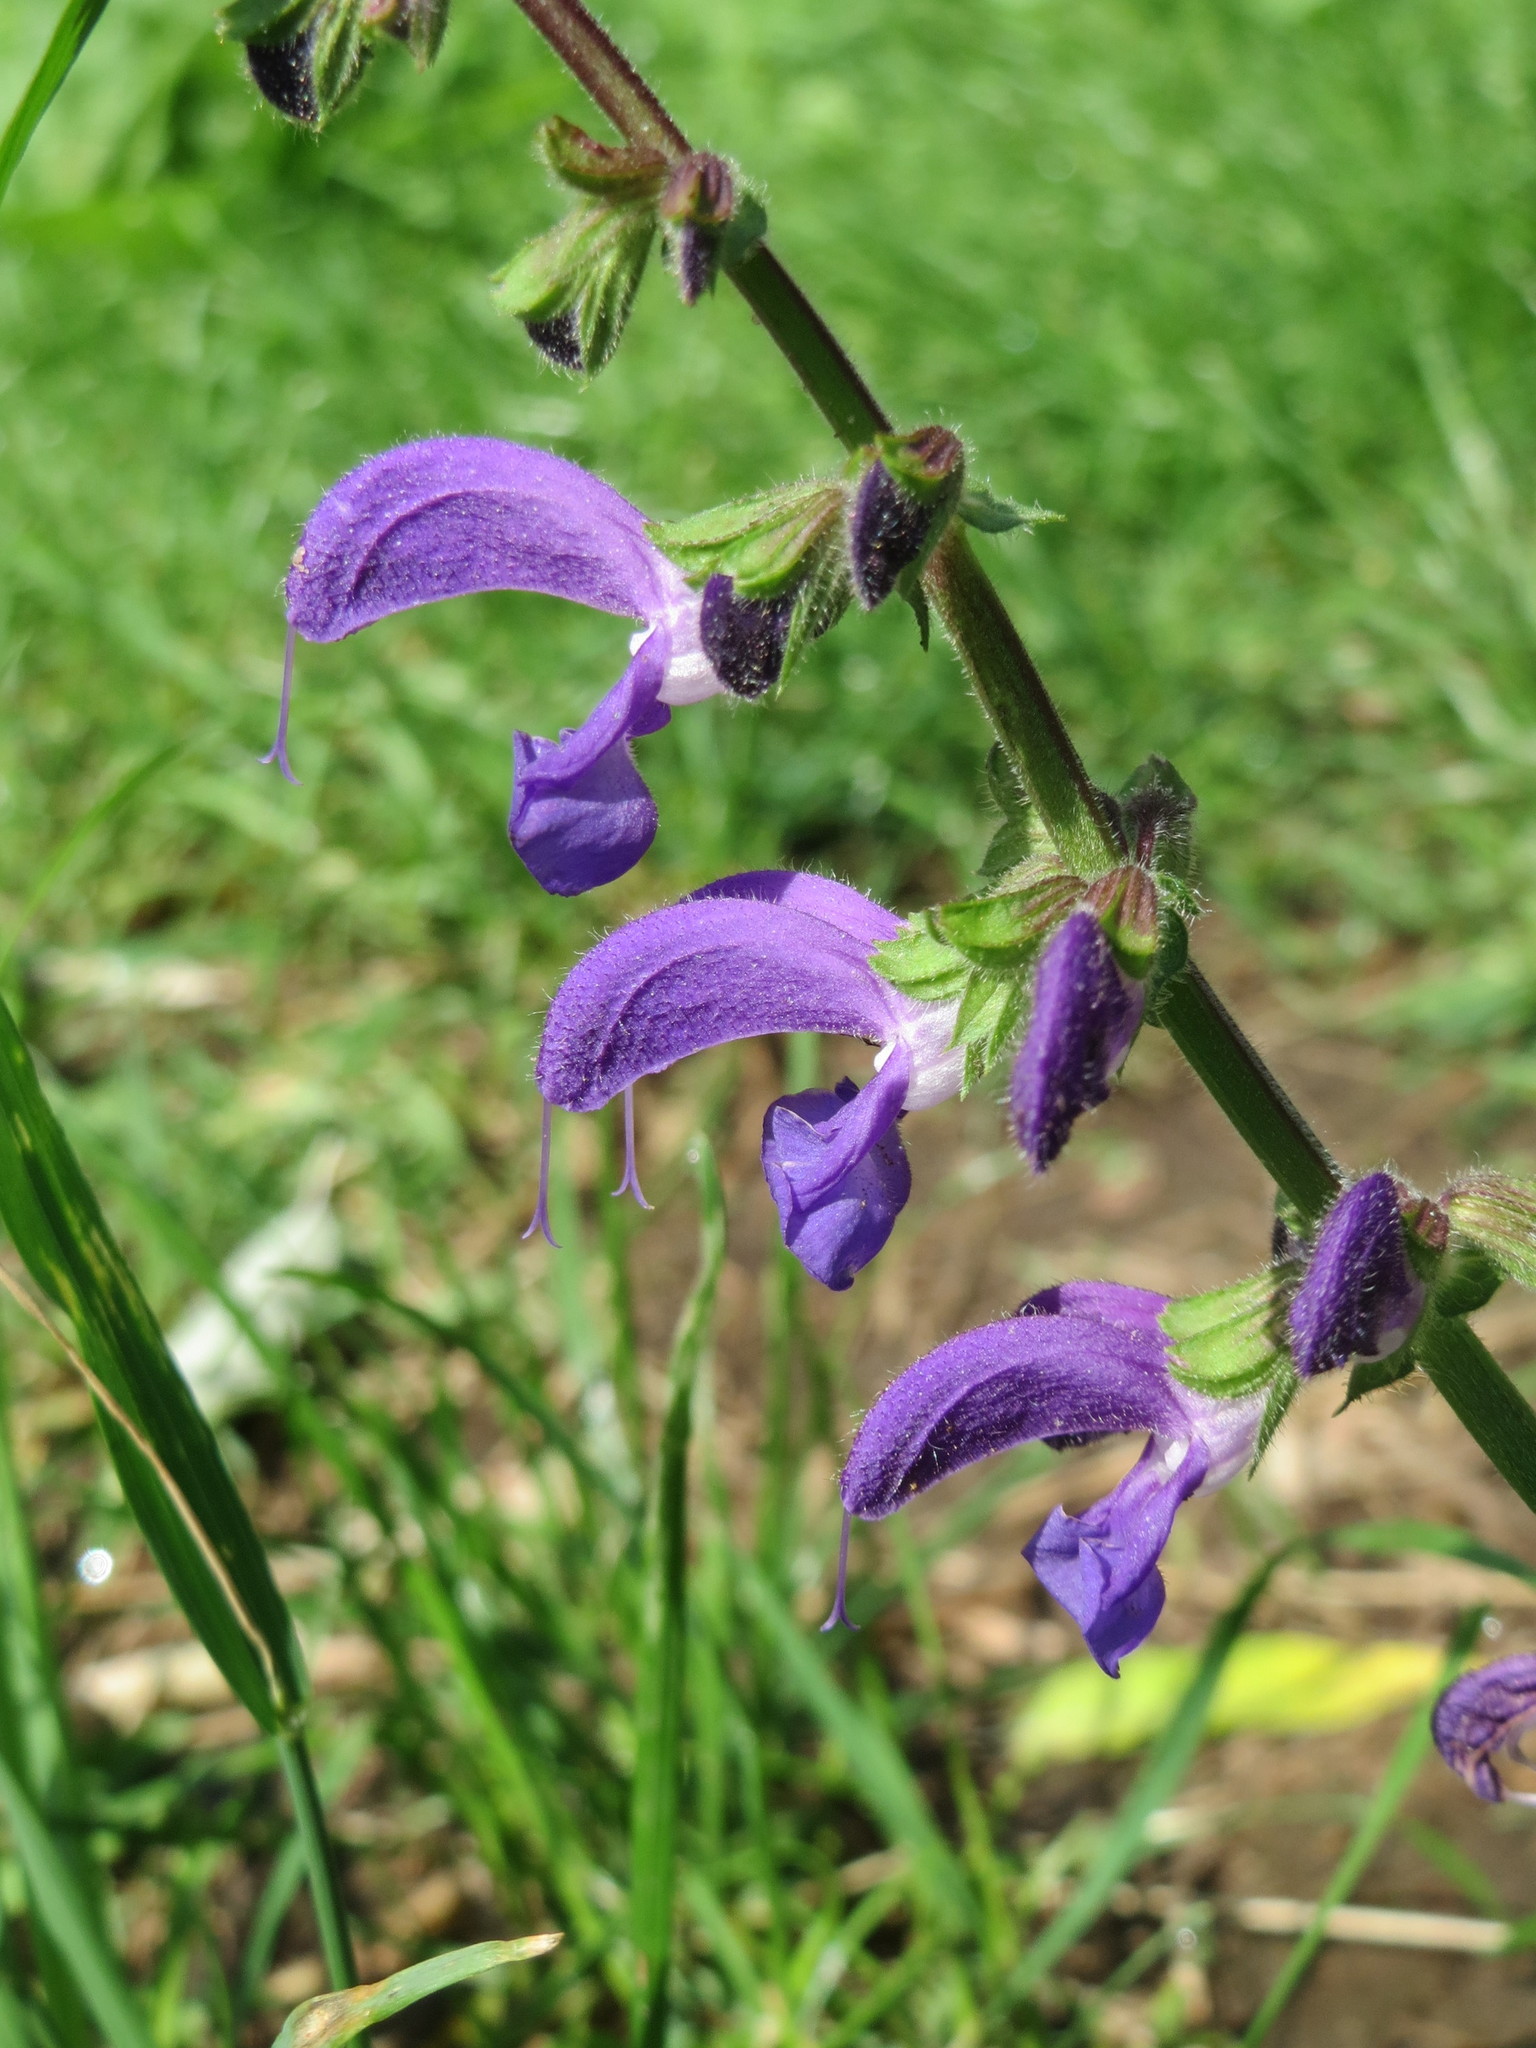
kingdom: Plantae
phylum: Tracheophyta
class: Magnoliopsida
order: Lamiales
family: Lamiaceae
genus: Salvia
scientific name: Salvia pratensis
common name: Meadow sage
